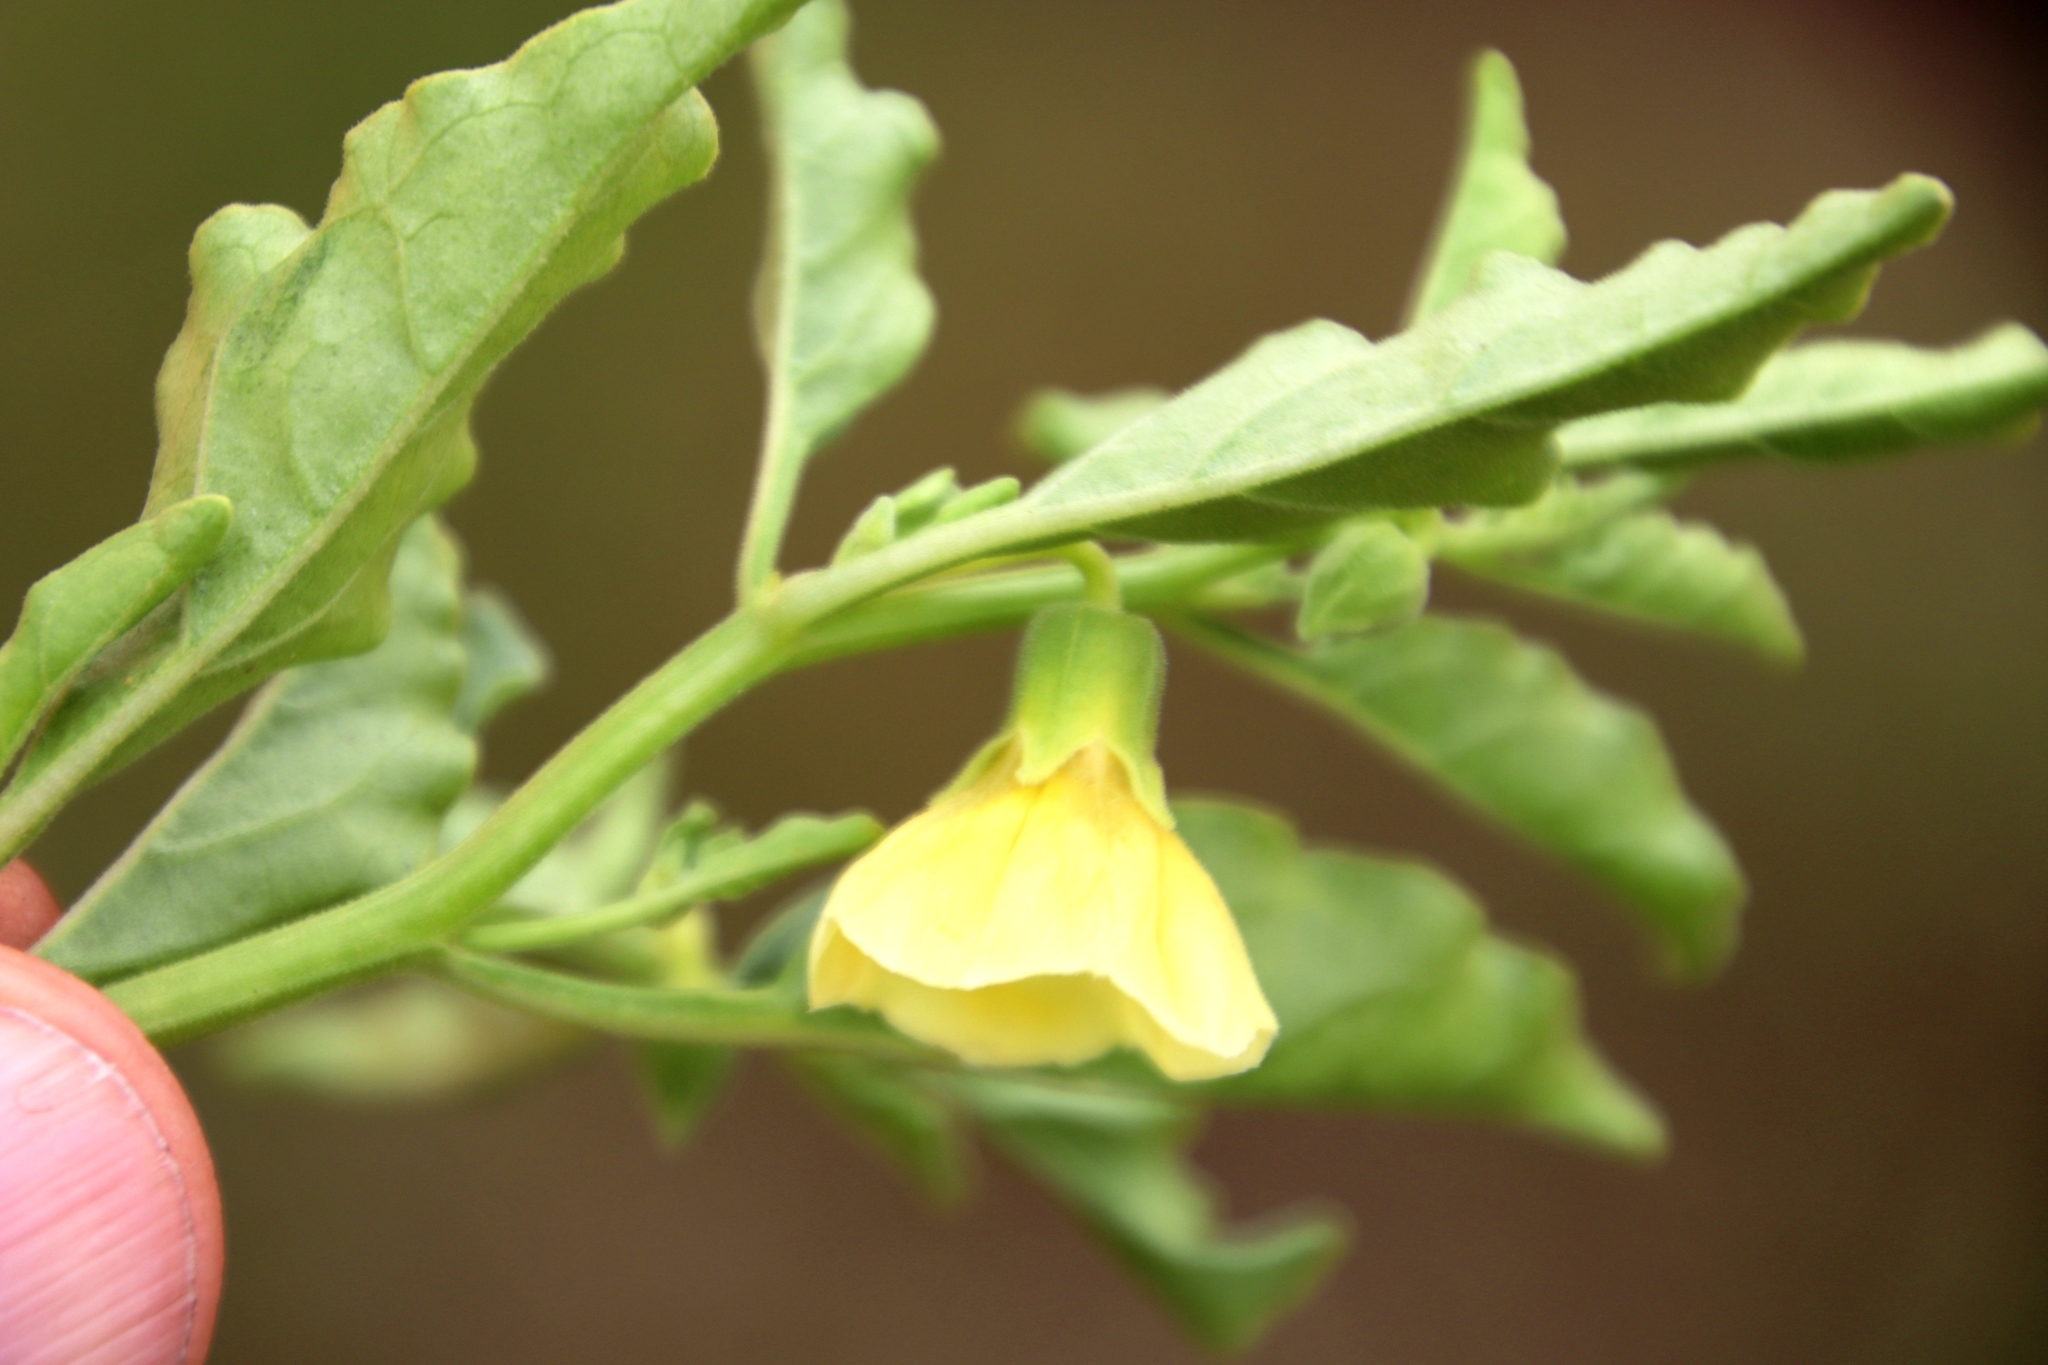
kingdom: Plantae
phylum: Tracheophyta
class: Magnoliopsida
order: Solanales
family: Solanaceae
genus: Physalis
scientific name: Physalis viscosa
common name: Stellate ground-cherry
